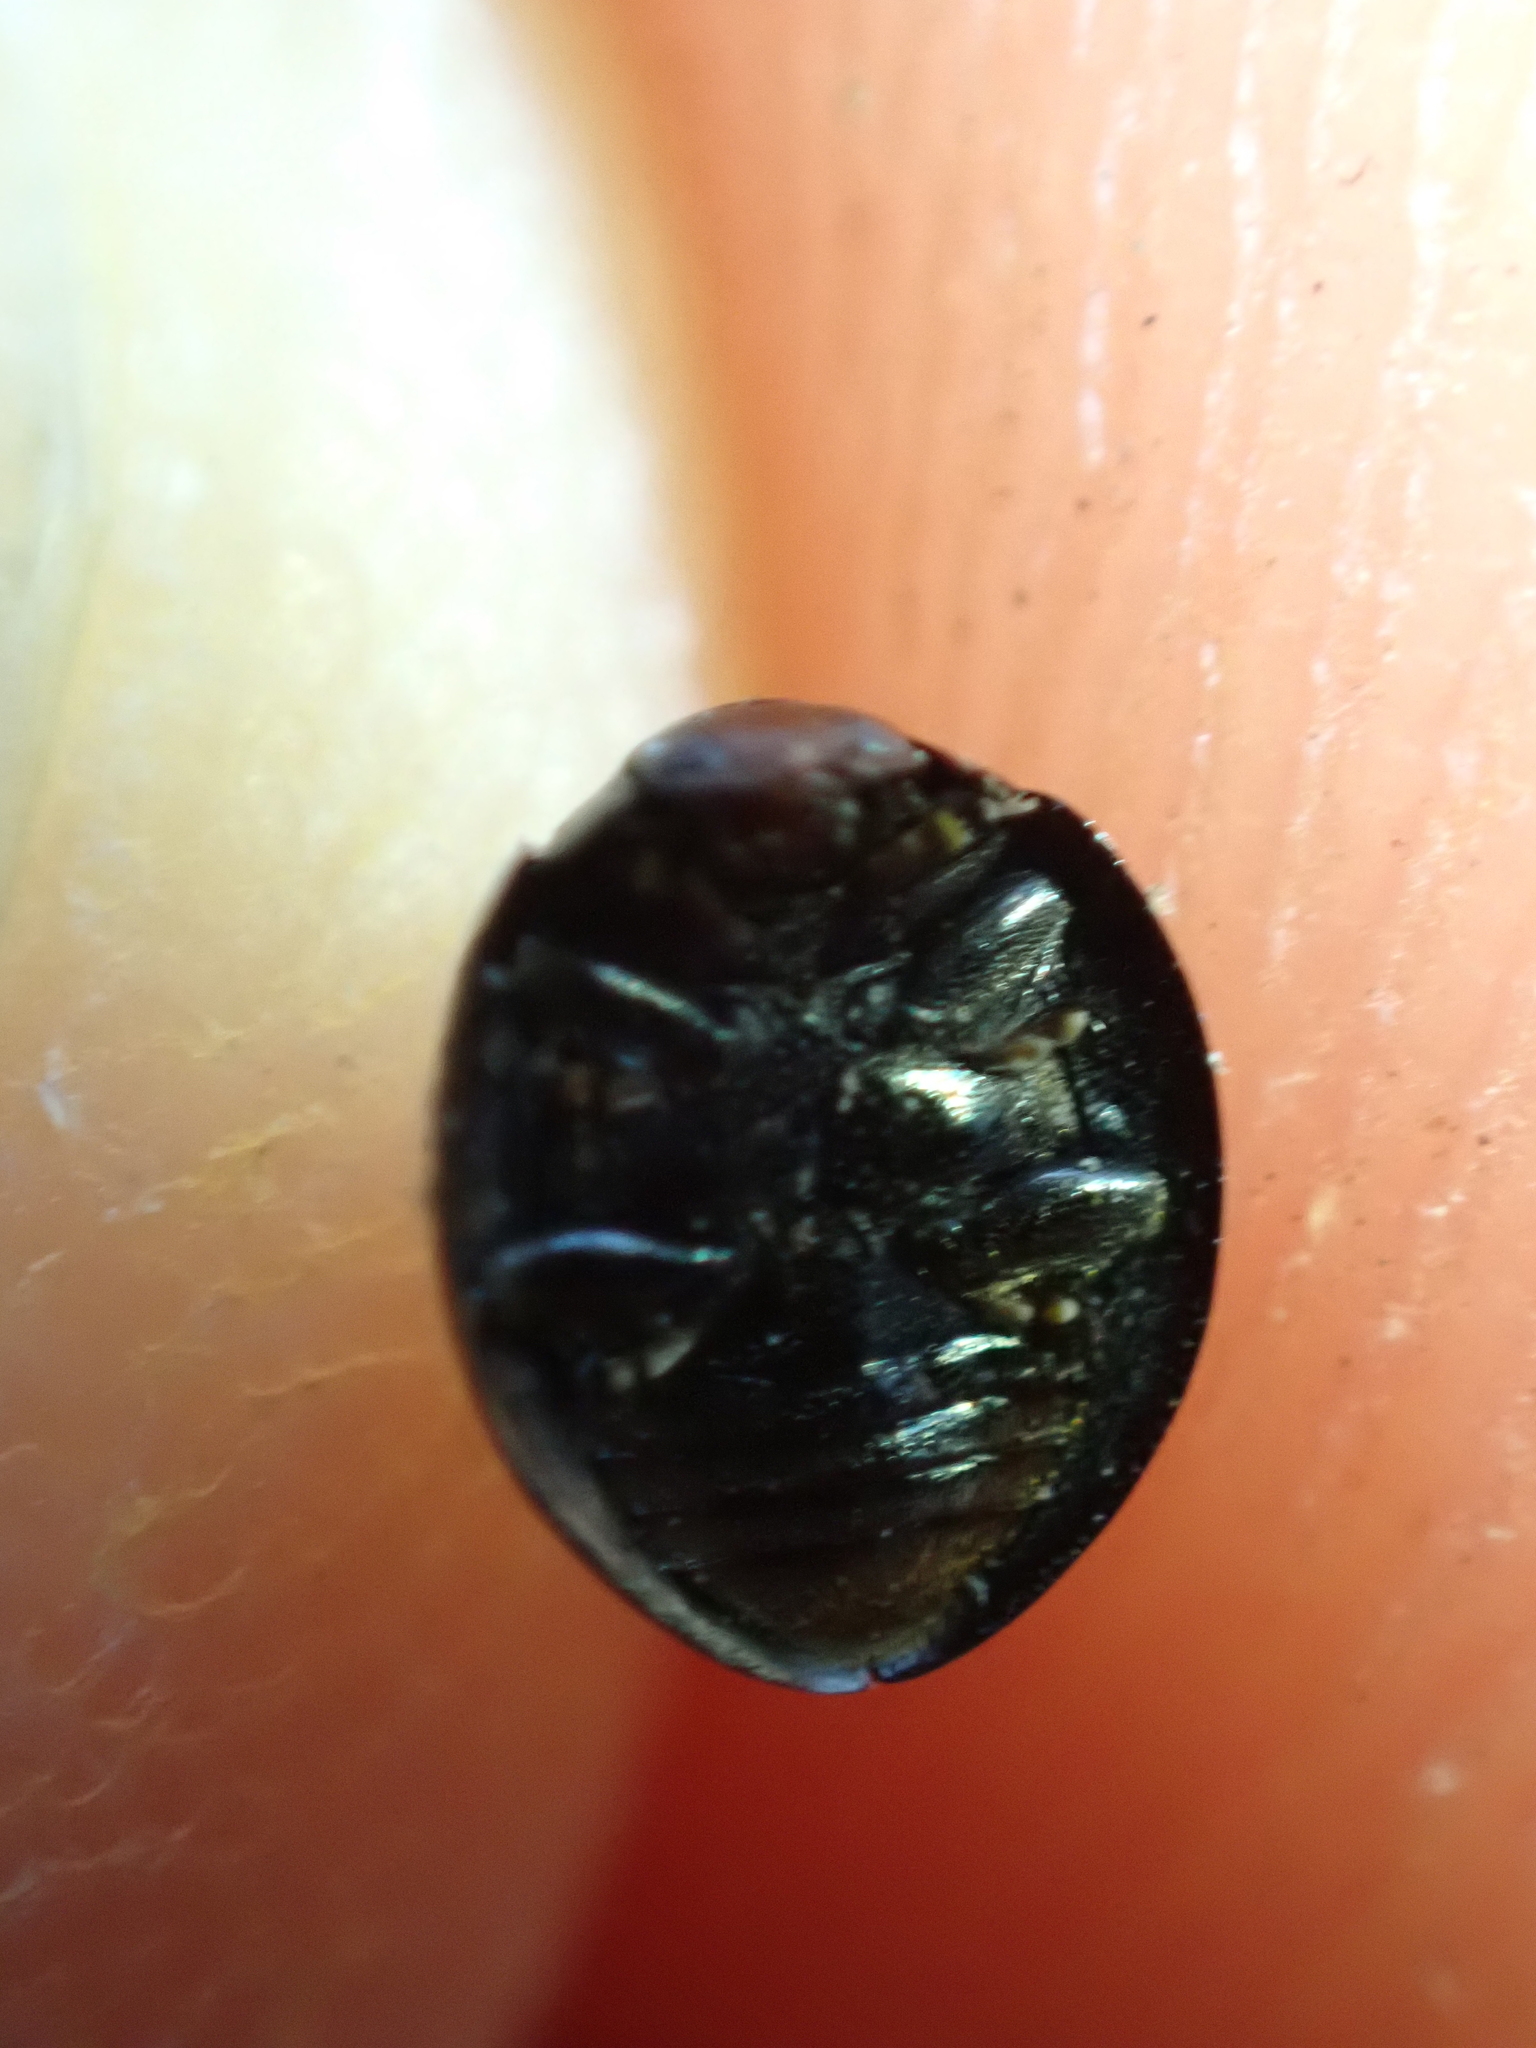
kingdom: Animalia
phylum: Arthropoda
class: Insecta
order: Coleoptera
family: Coccinellidae
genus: Chilocorus
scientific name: Chilocorus bipustulatus
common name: Heather ladybird
